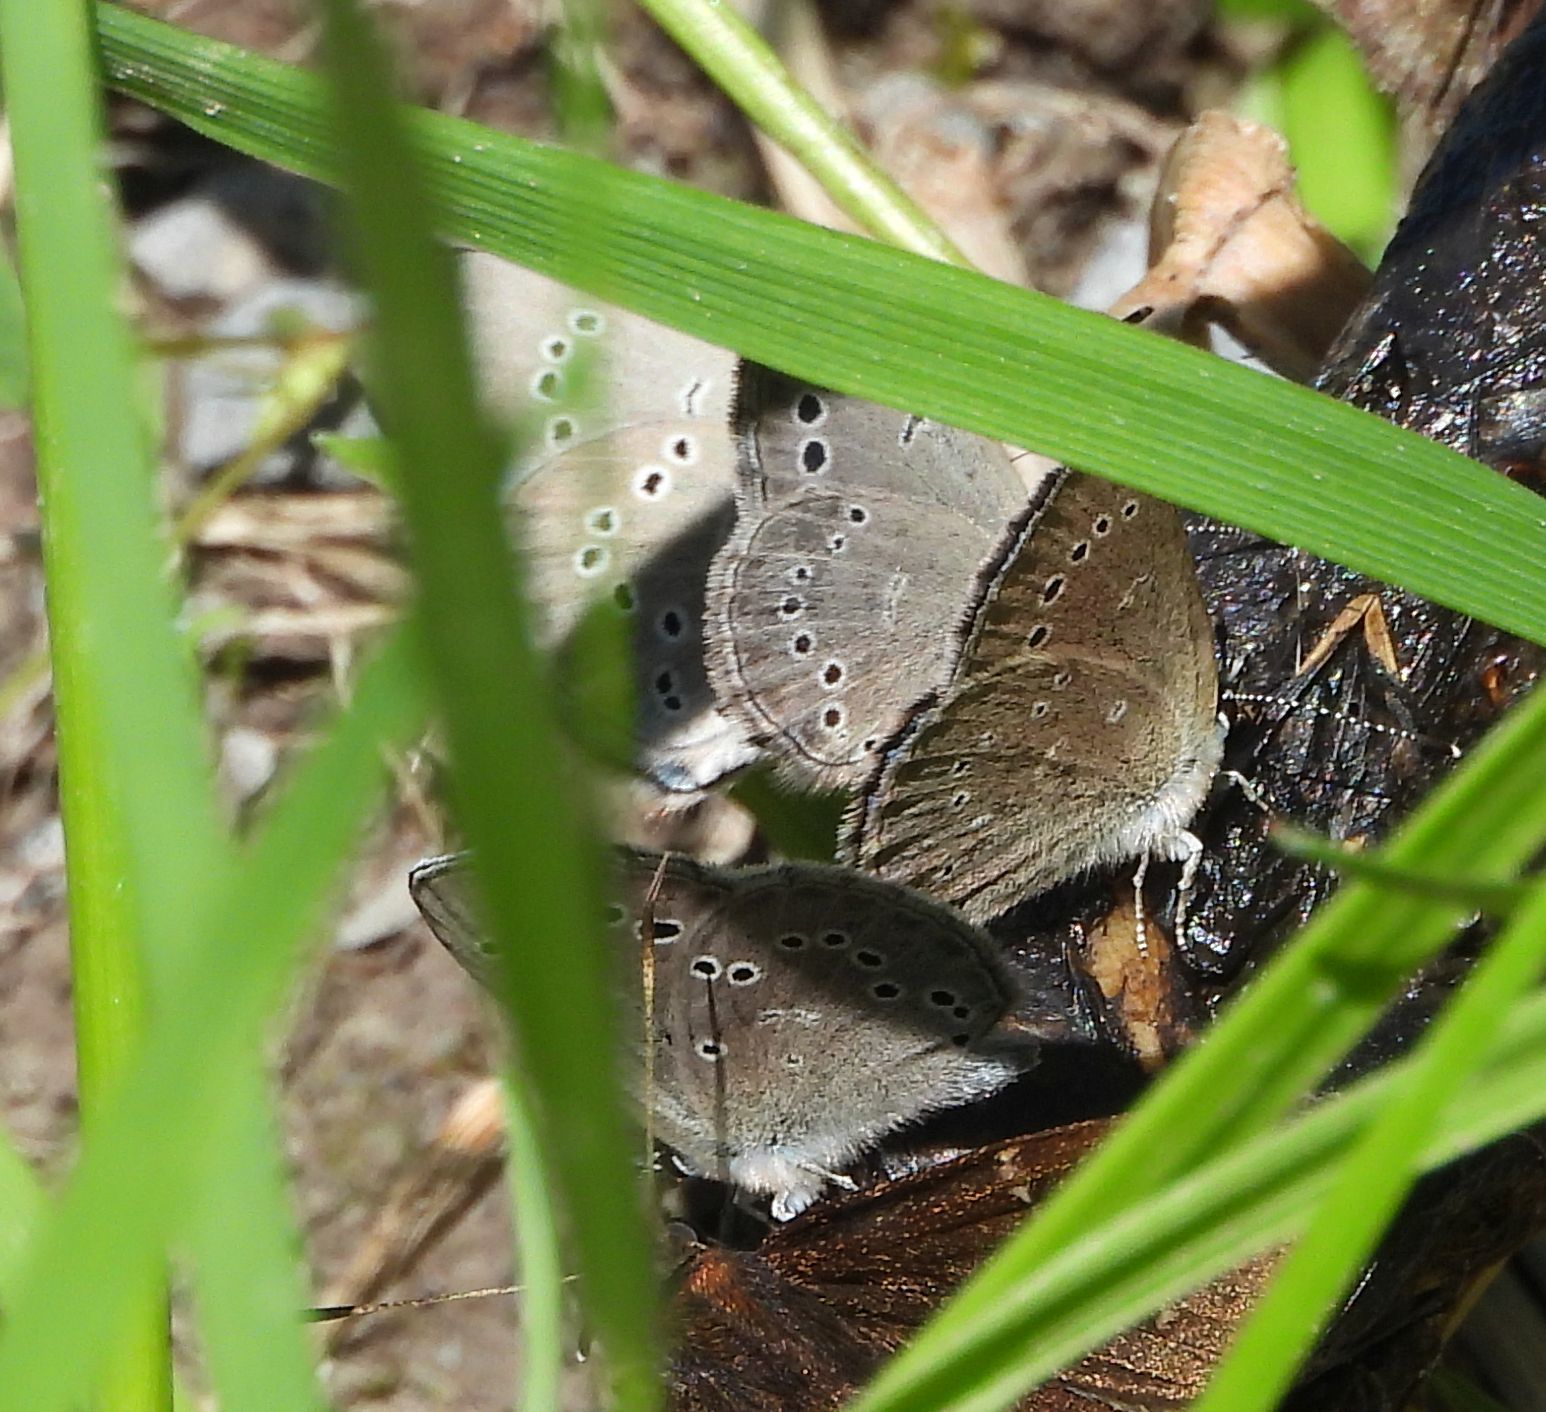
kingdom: Animalia
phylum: Arthropoda
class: Insecta
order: Lepidoptera
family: Lycaenidae
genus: Glaucopsyche
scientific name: Glaucopsyche lygdamus
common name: Silvery blue
